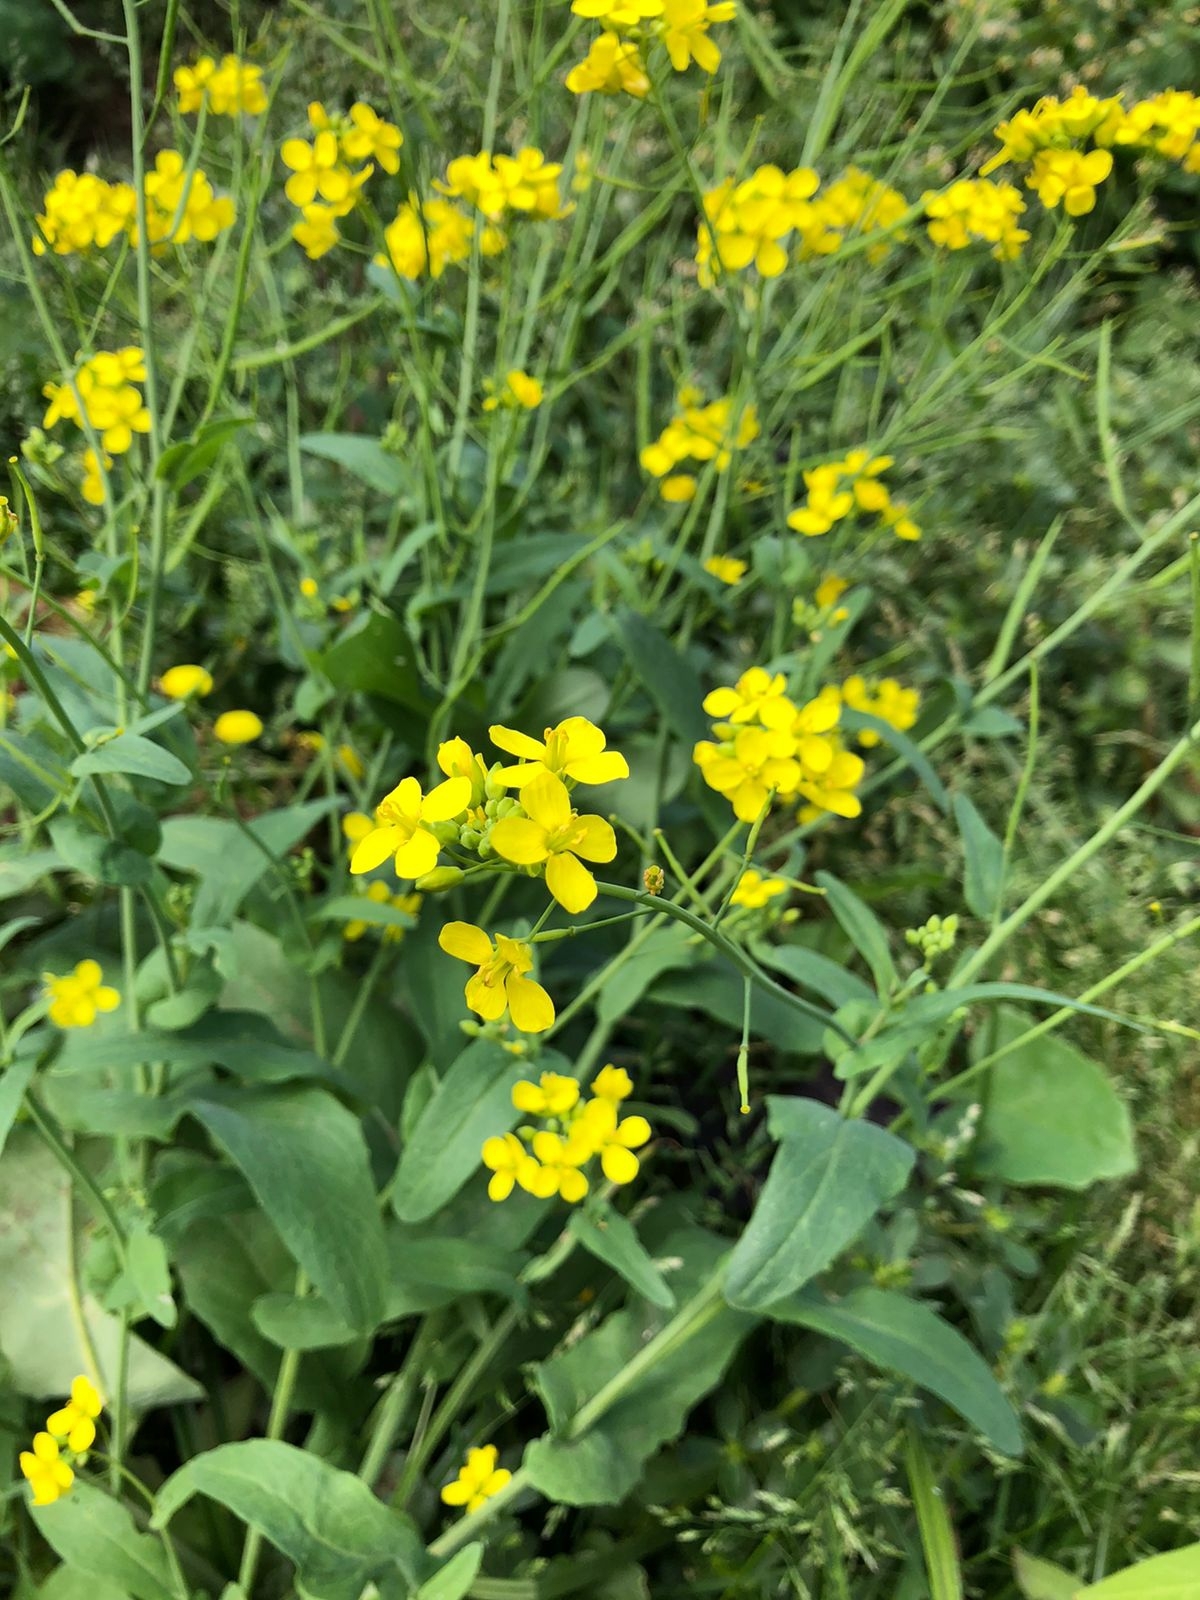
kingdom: Plantae
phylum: Tracheophyta
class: Magnoliopsida
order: Brassicales
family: Brassicaceae
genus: Physaria
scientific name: Physaria gracilis
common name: Spreading bladderpod
